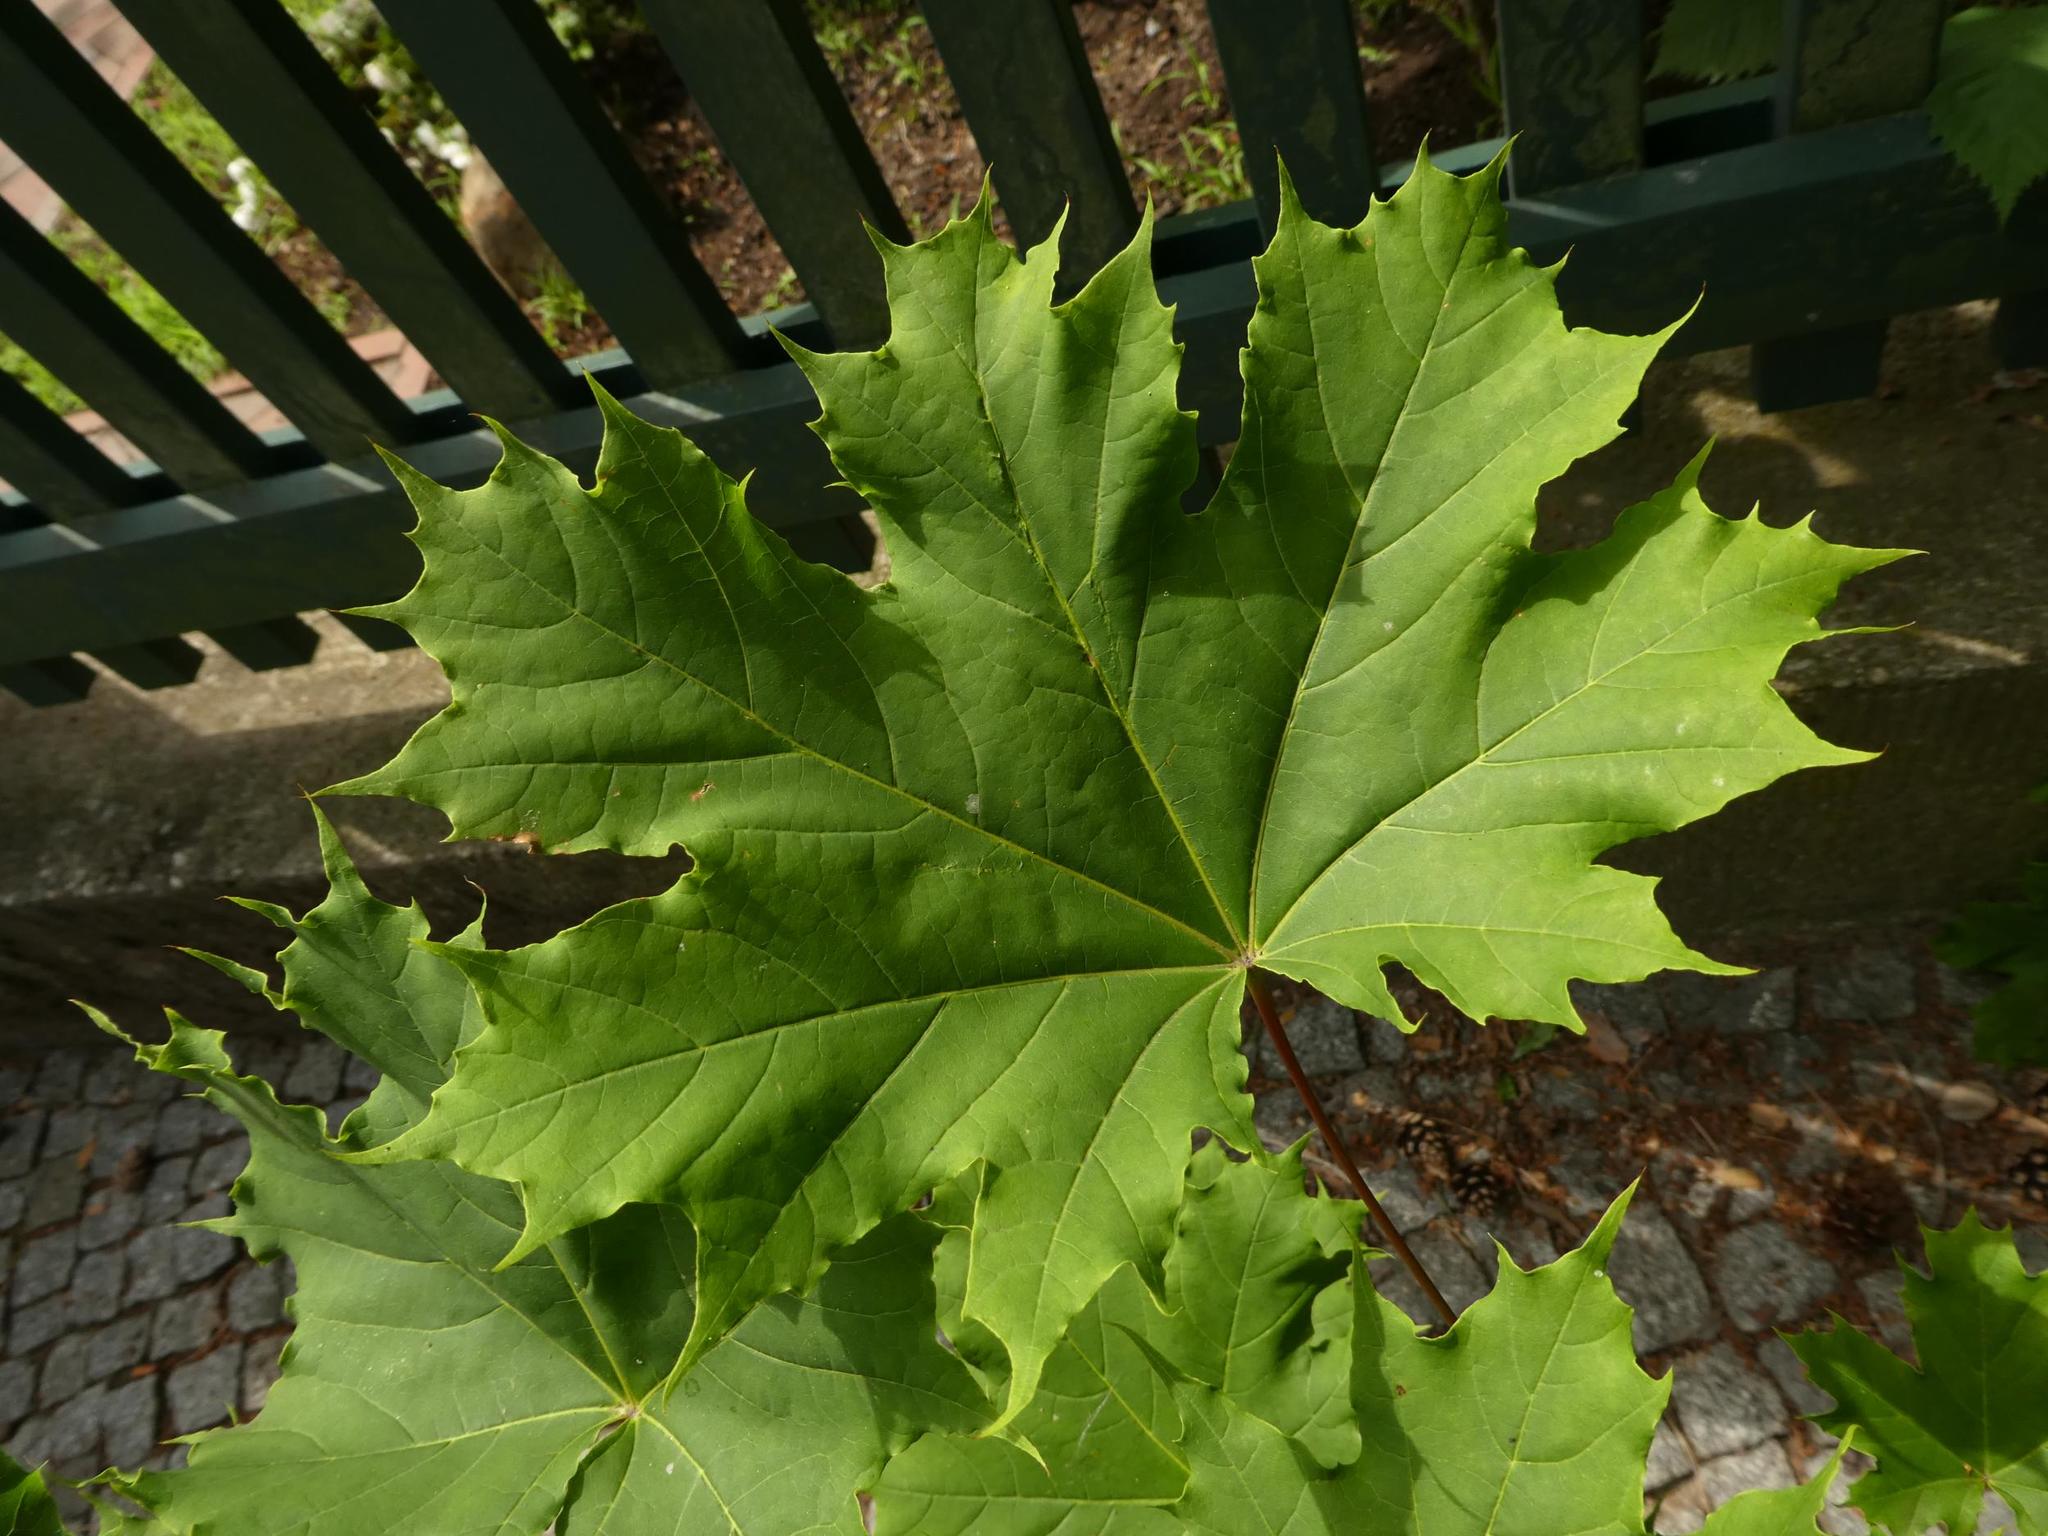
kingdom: Plantae
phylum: Tracheophyta
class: Magnoliopsida
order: Sapindales
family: Sapindaceae
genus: Acer
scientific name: Acer platanoides
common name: Norway maple
